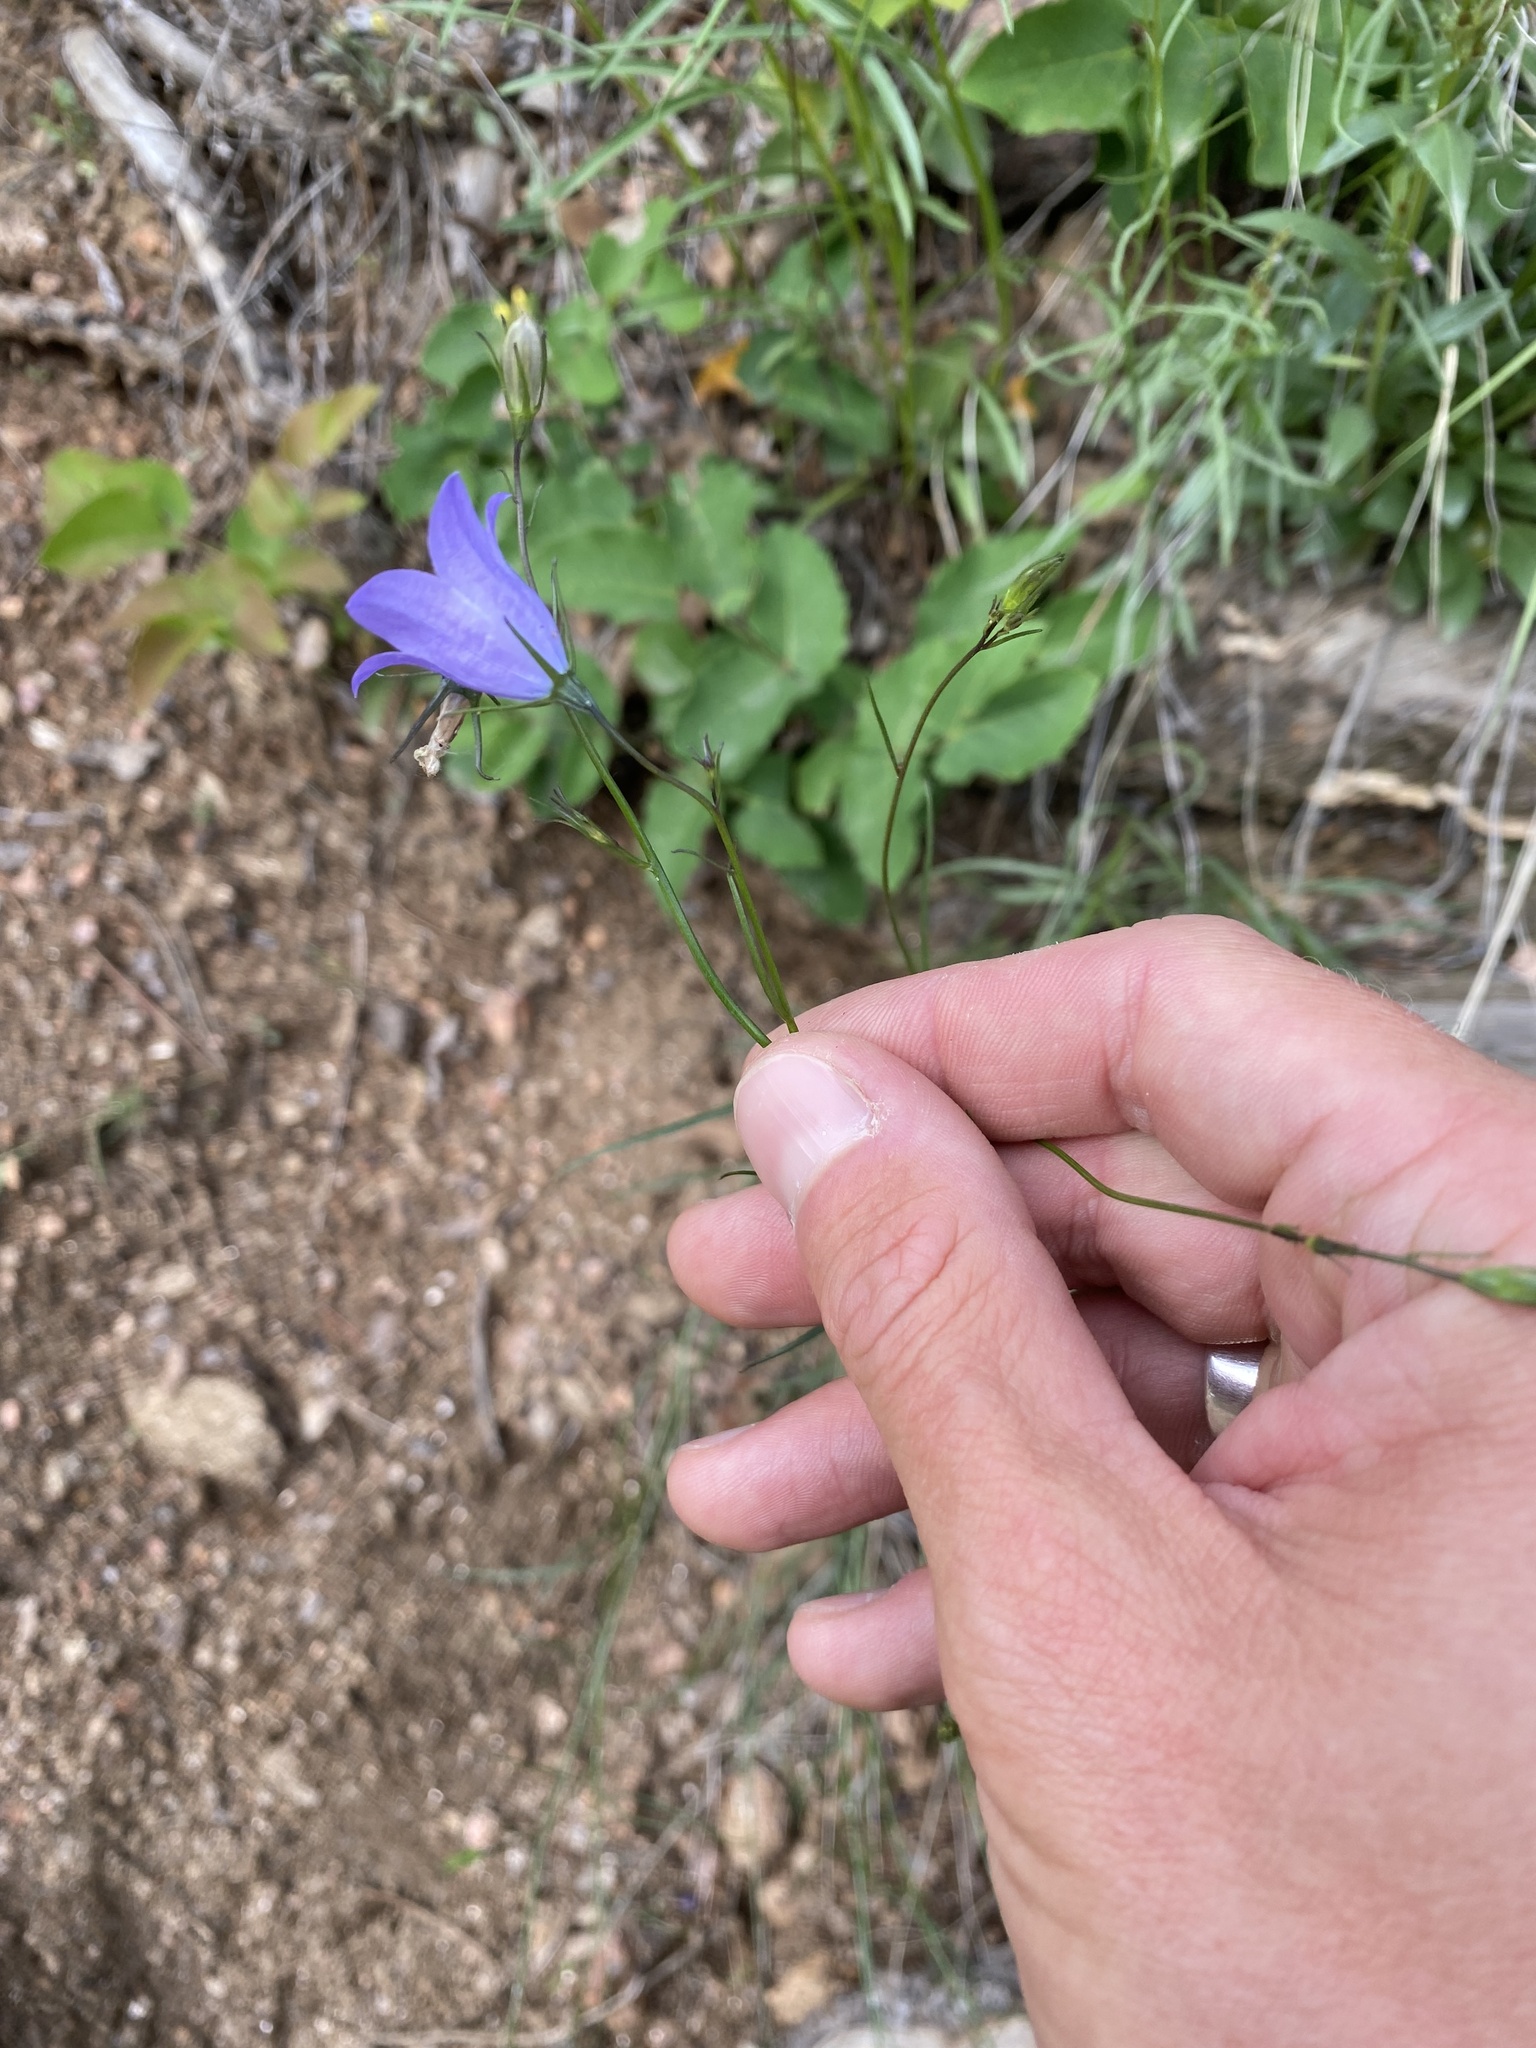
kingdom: Plantae
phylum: Tracheophyta
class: Magnoliopsida
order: Asterales
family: Campanulaceae
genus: Campanula
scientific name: Campanula petiolata
